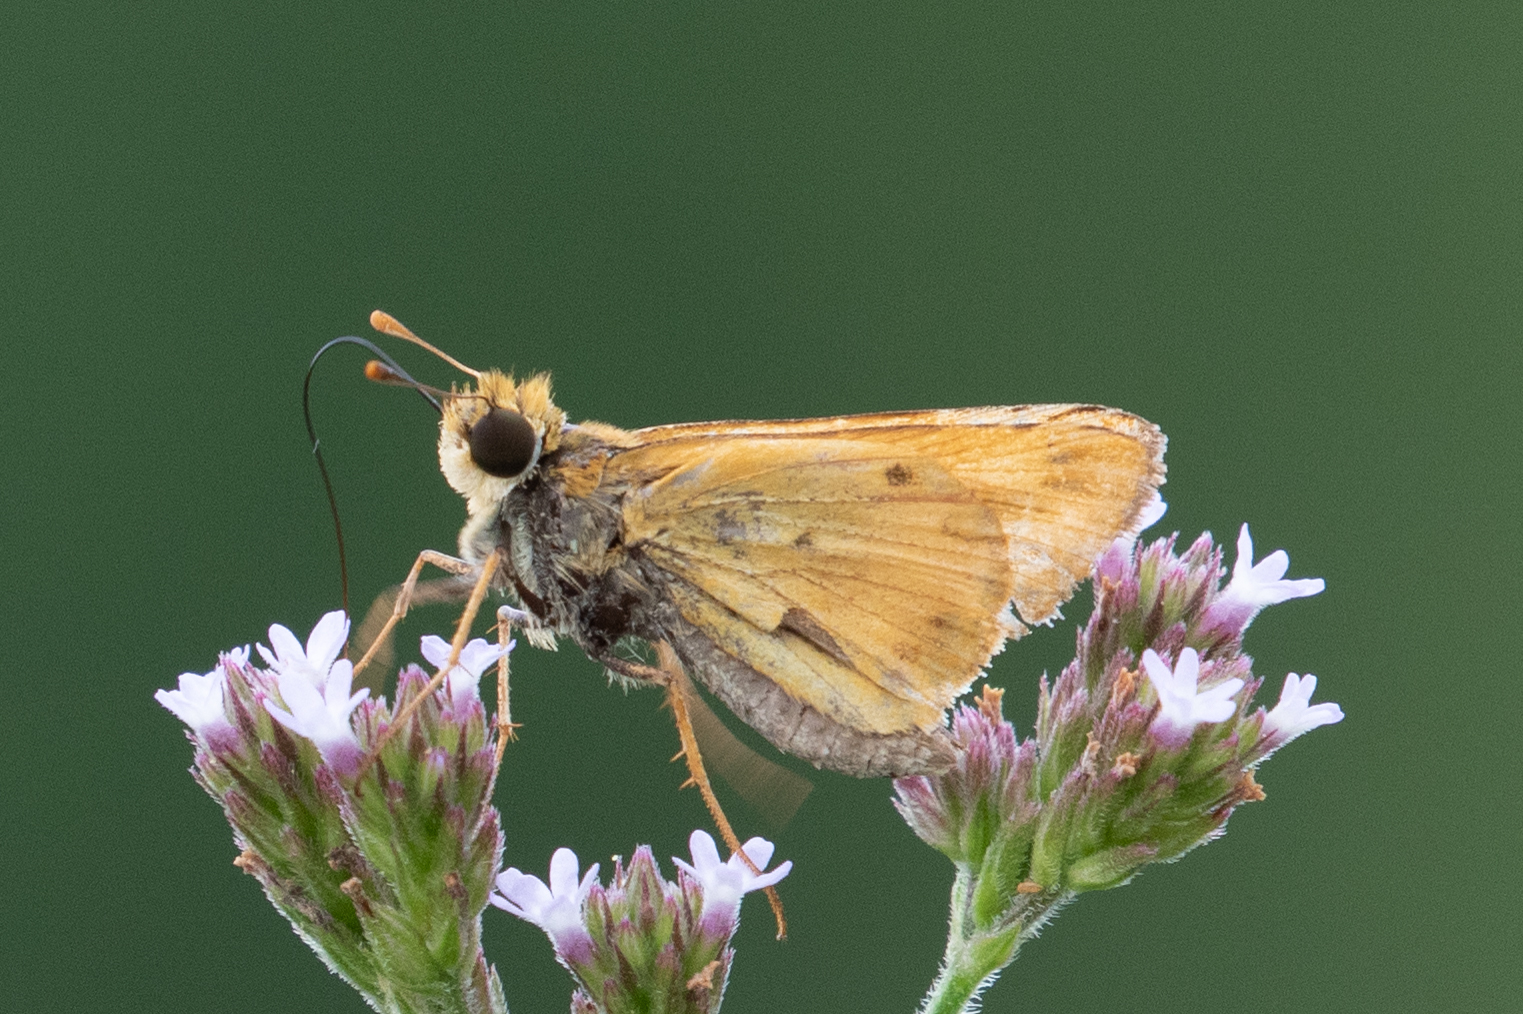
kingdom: Animalia
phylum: Arthropoda
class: Insecta
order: Lepidoptera
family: Hesperiidae
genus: Hylephila
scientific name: Hylephila phyleus
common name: Fiery skipper
